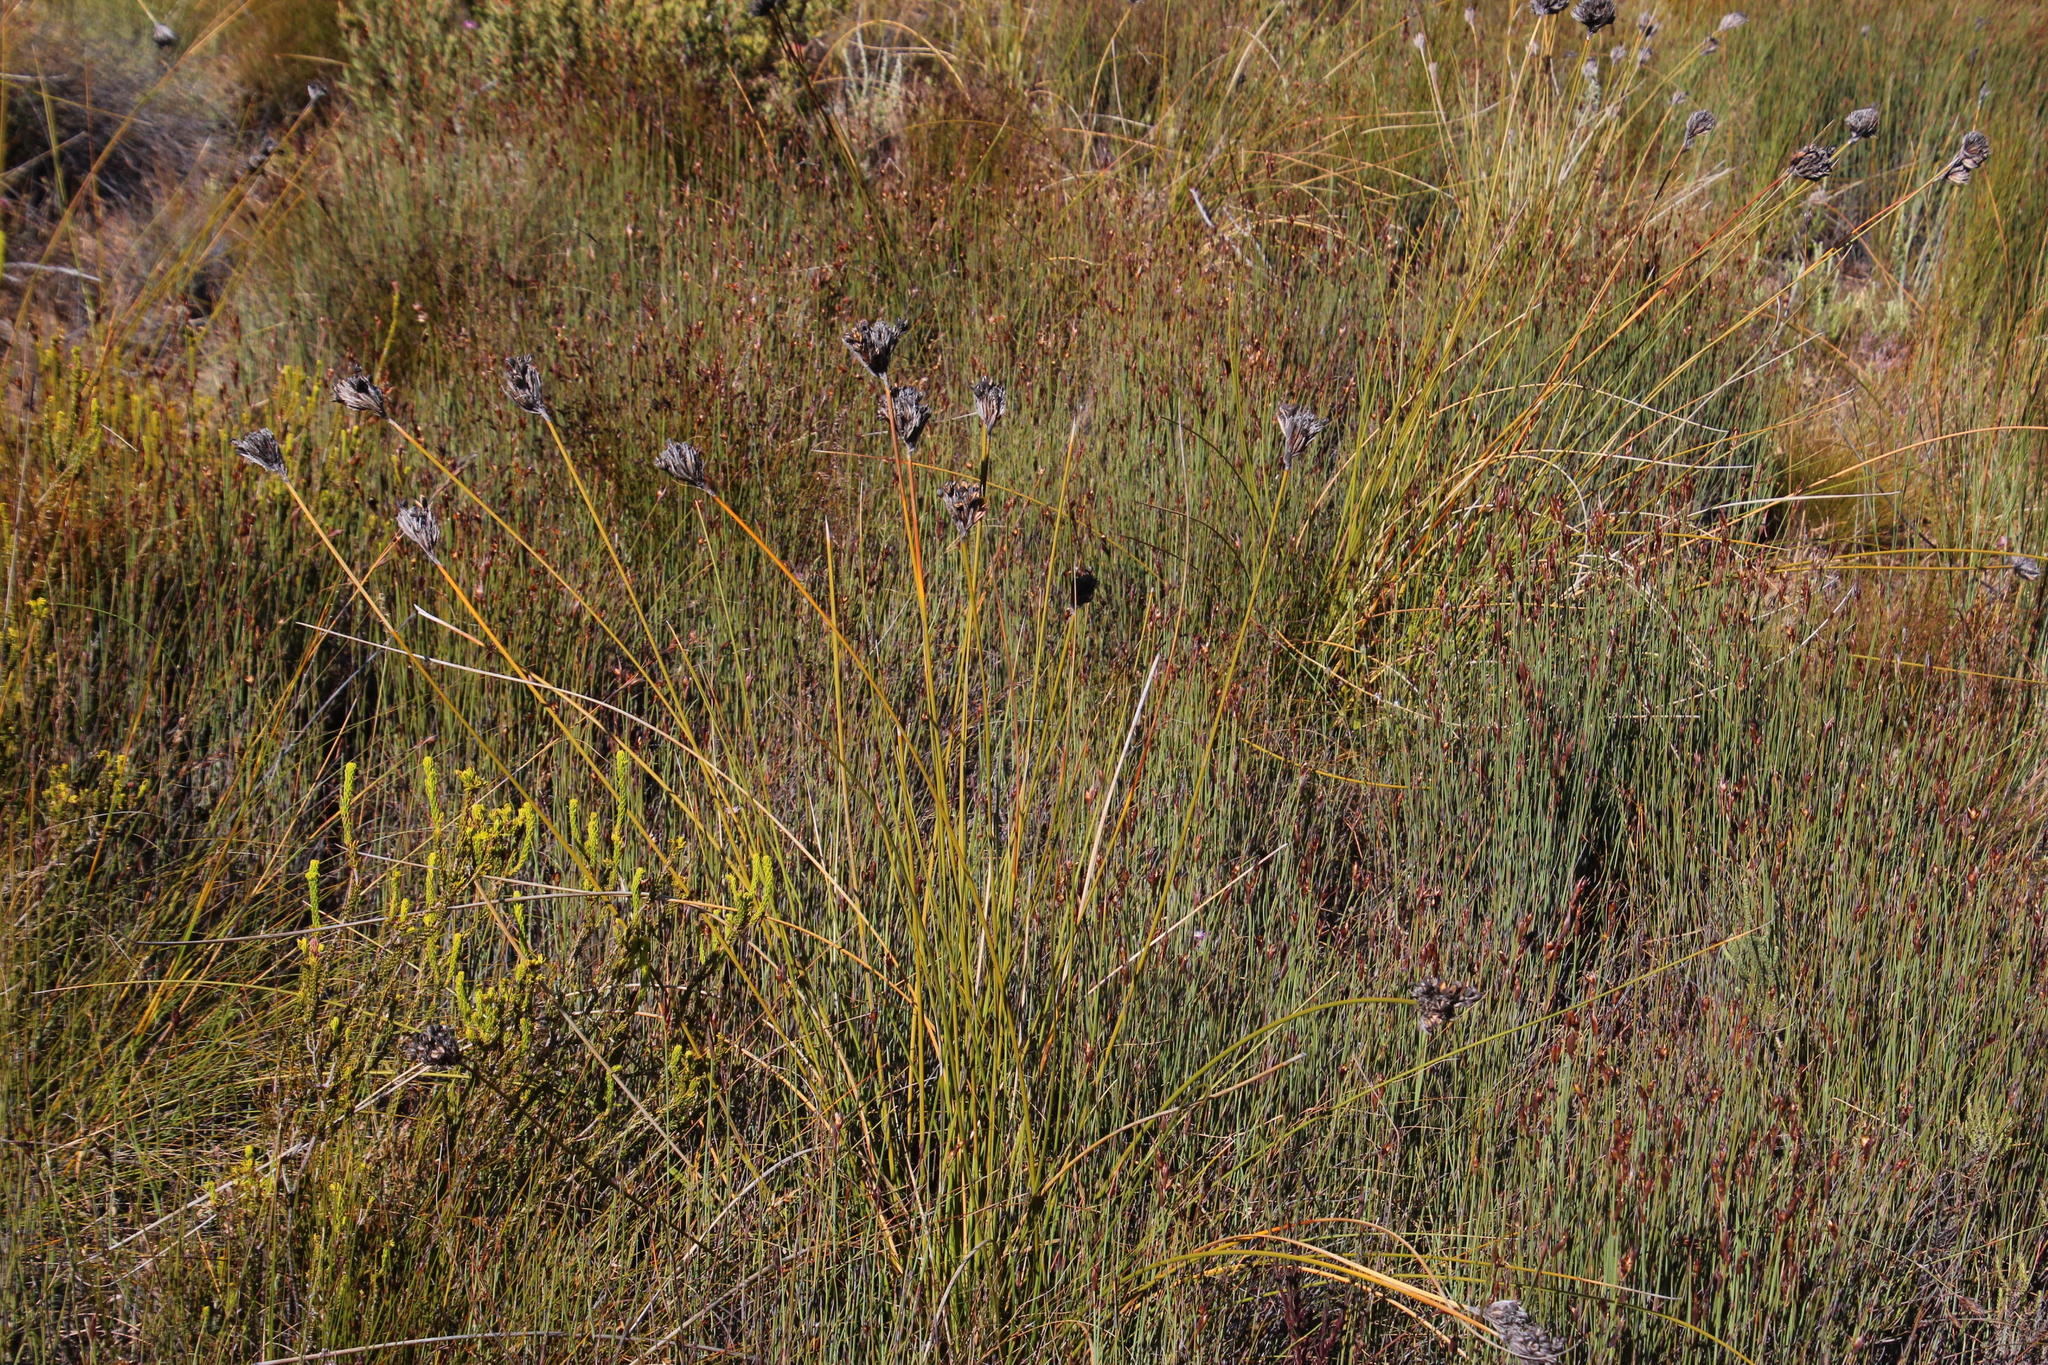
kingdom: Plantae
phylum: Tracheophyta
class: Liliopsida
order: Asparagales
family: Iridaceae
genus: Bobartia
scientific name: Bobartia rufa
